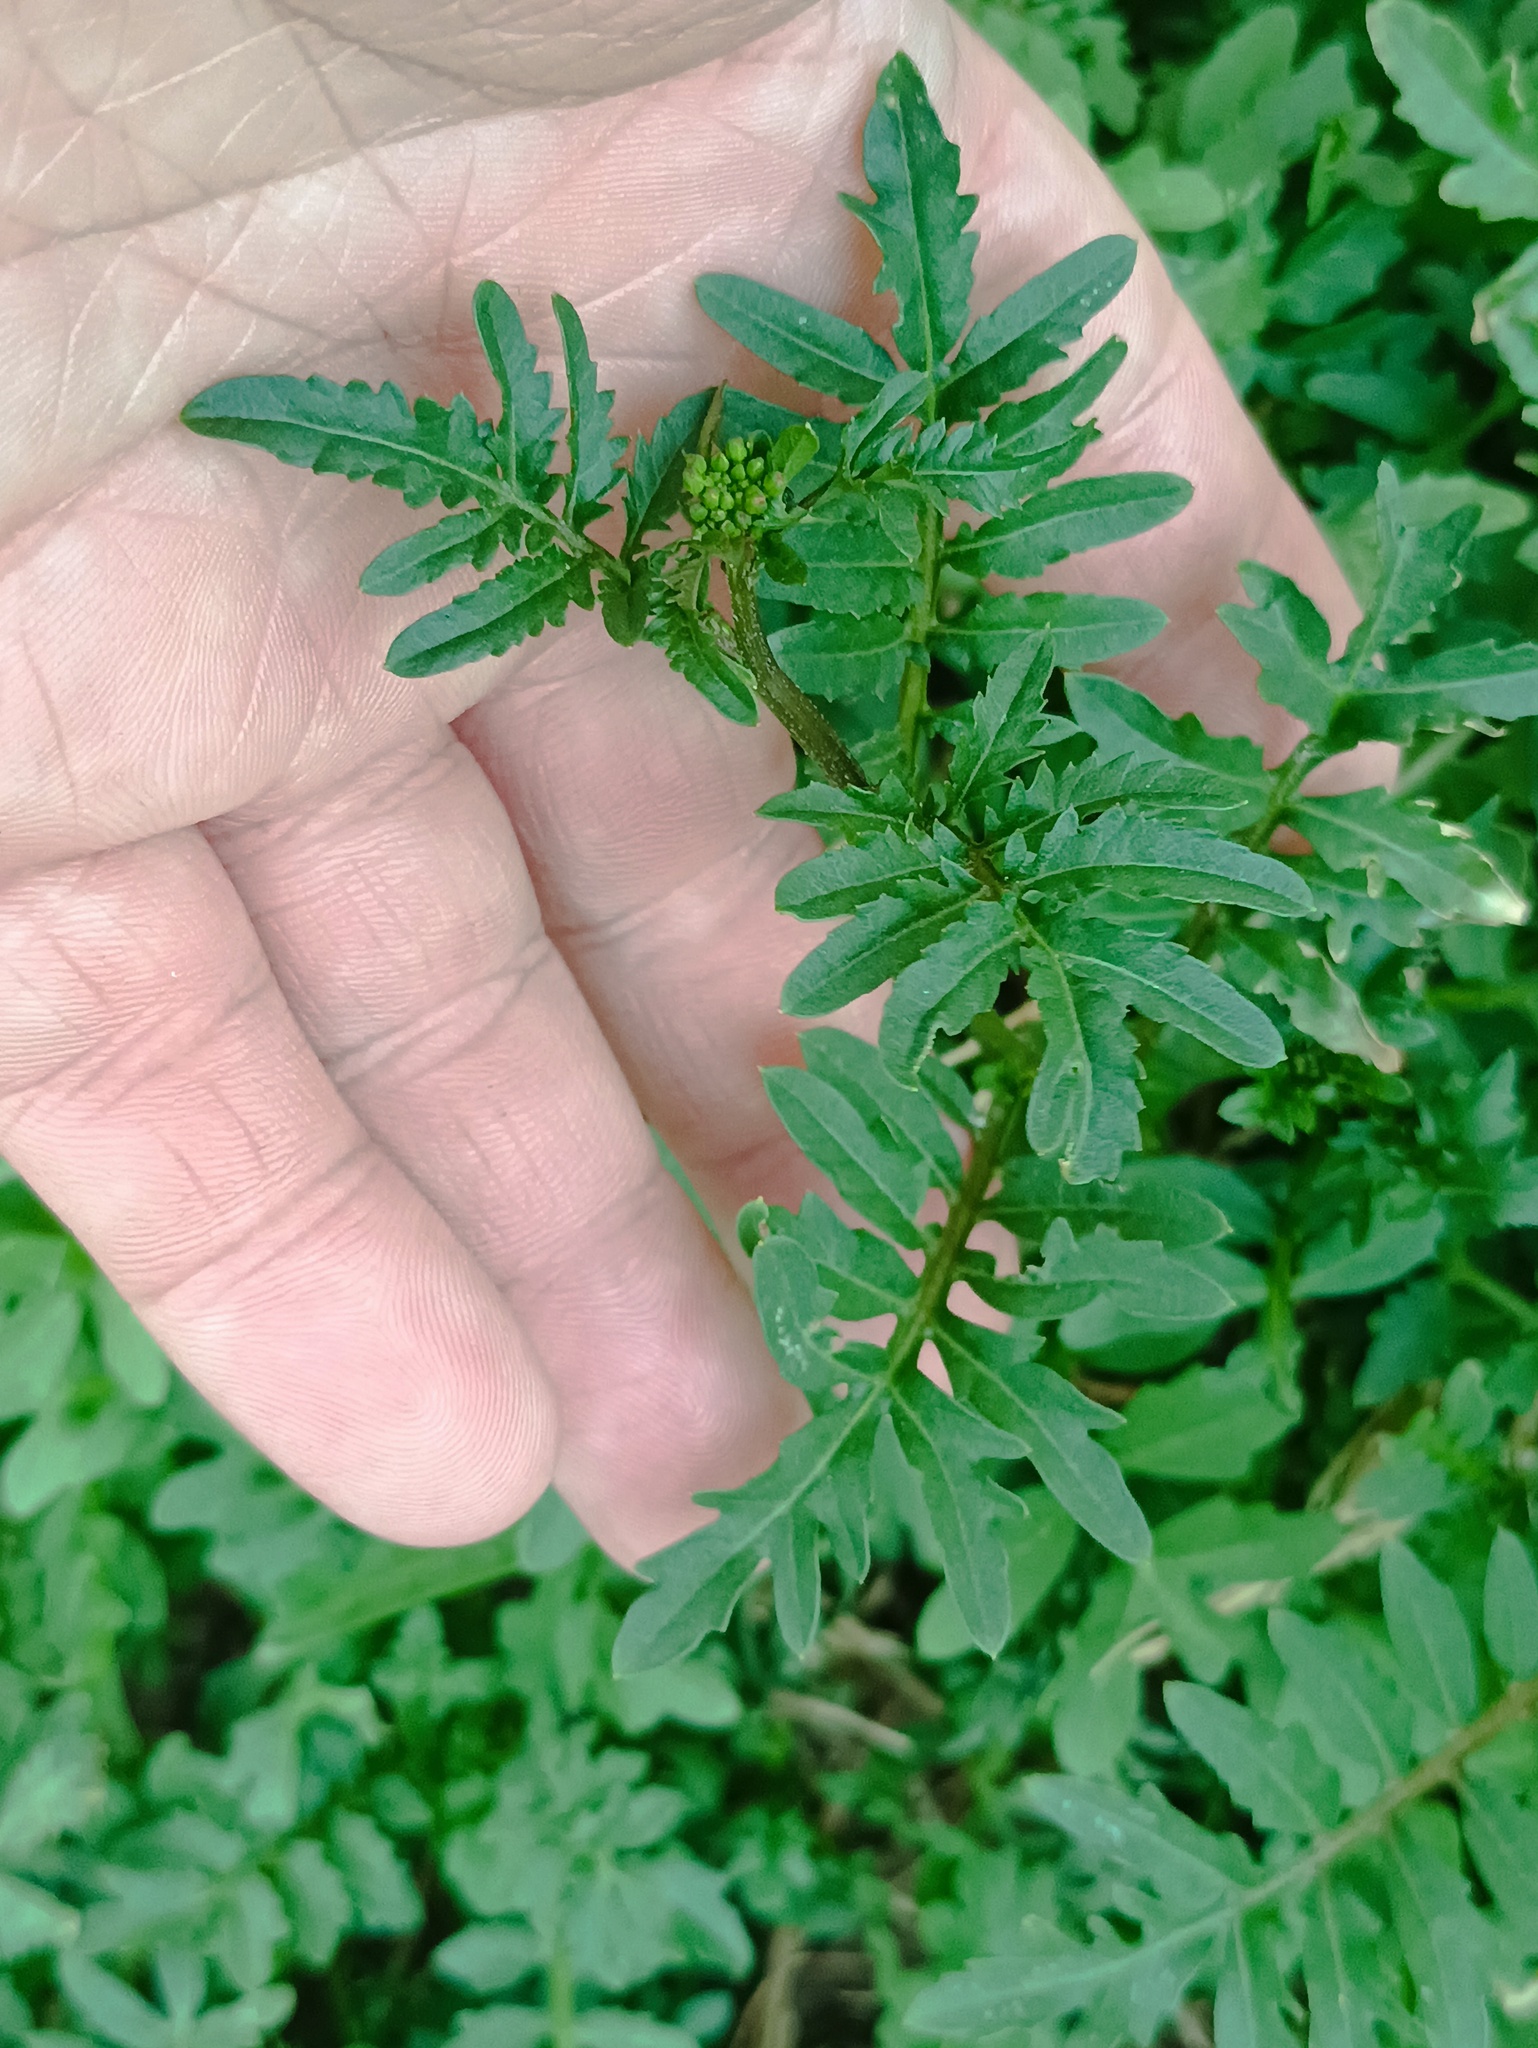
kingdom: Plantae
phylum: Tracheophyta
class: Magnoliopsida
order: Brassicales
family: Brassicaceae
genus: Rorippa
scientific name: Rorippa sylvestris
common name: Creeping yellowcress
